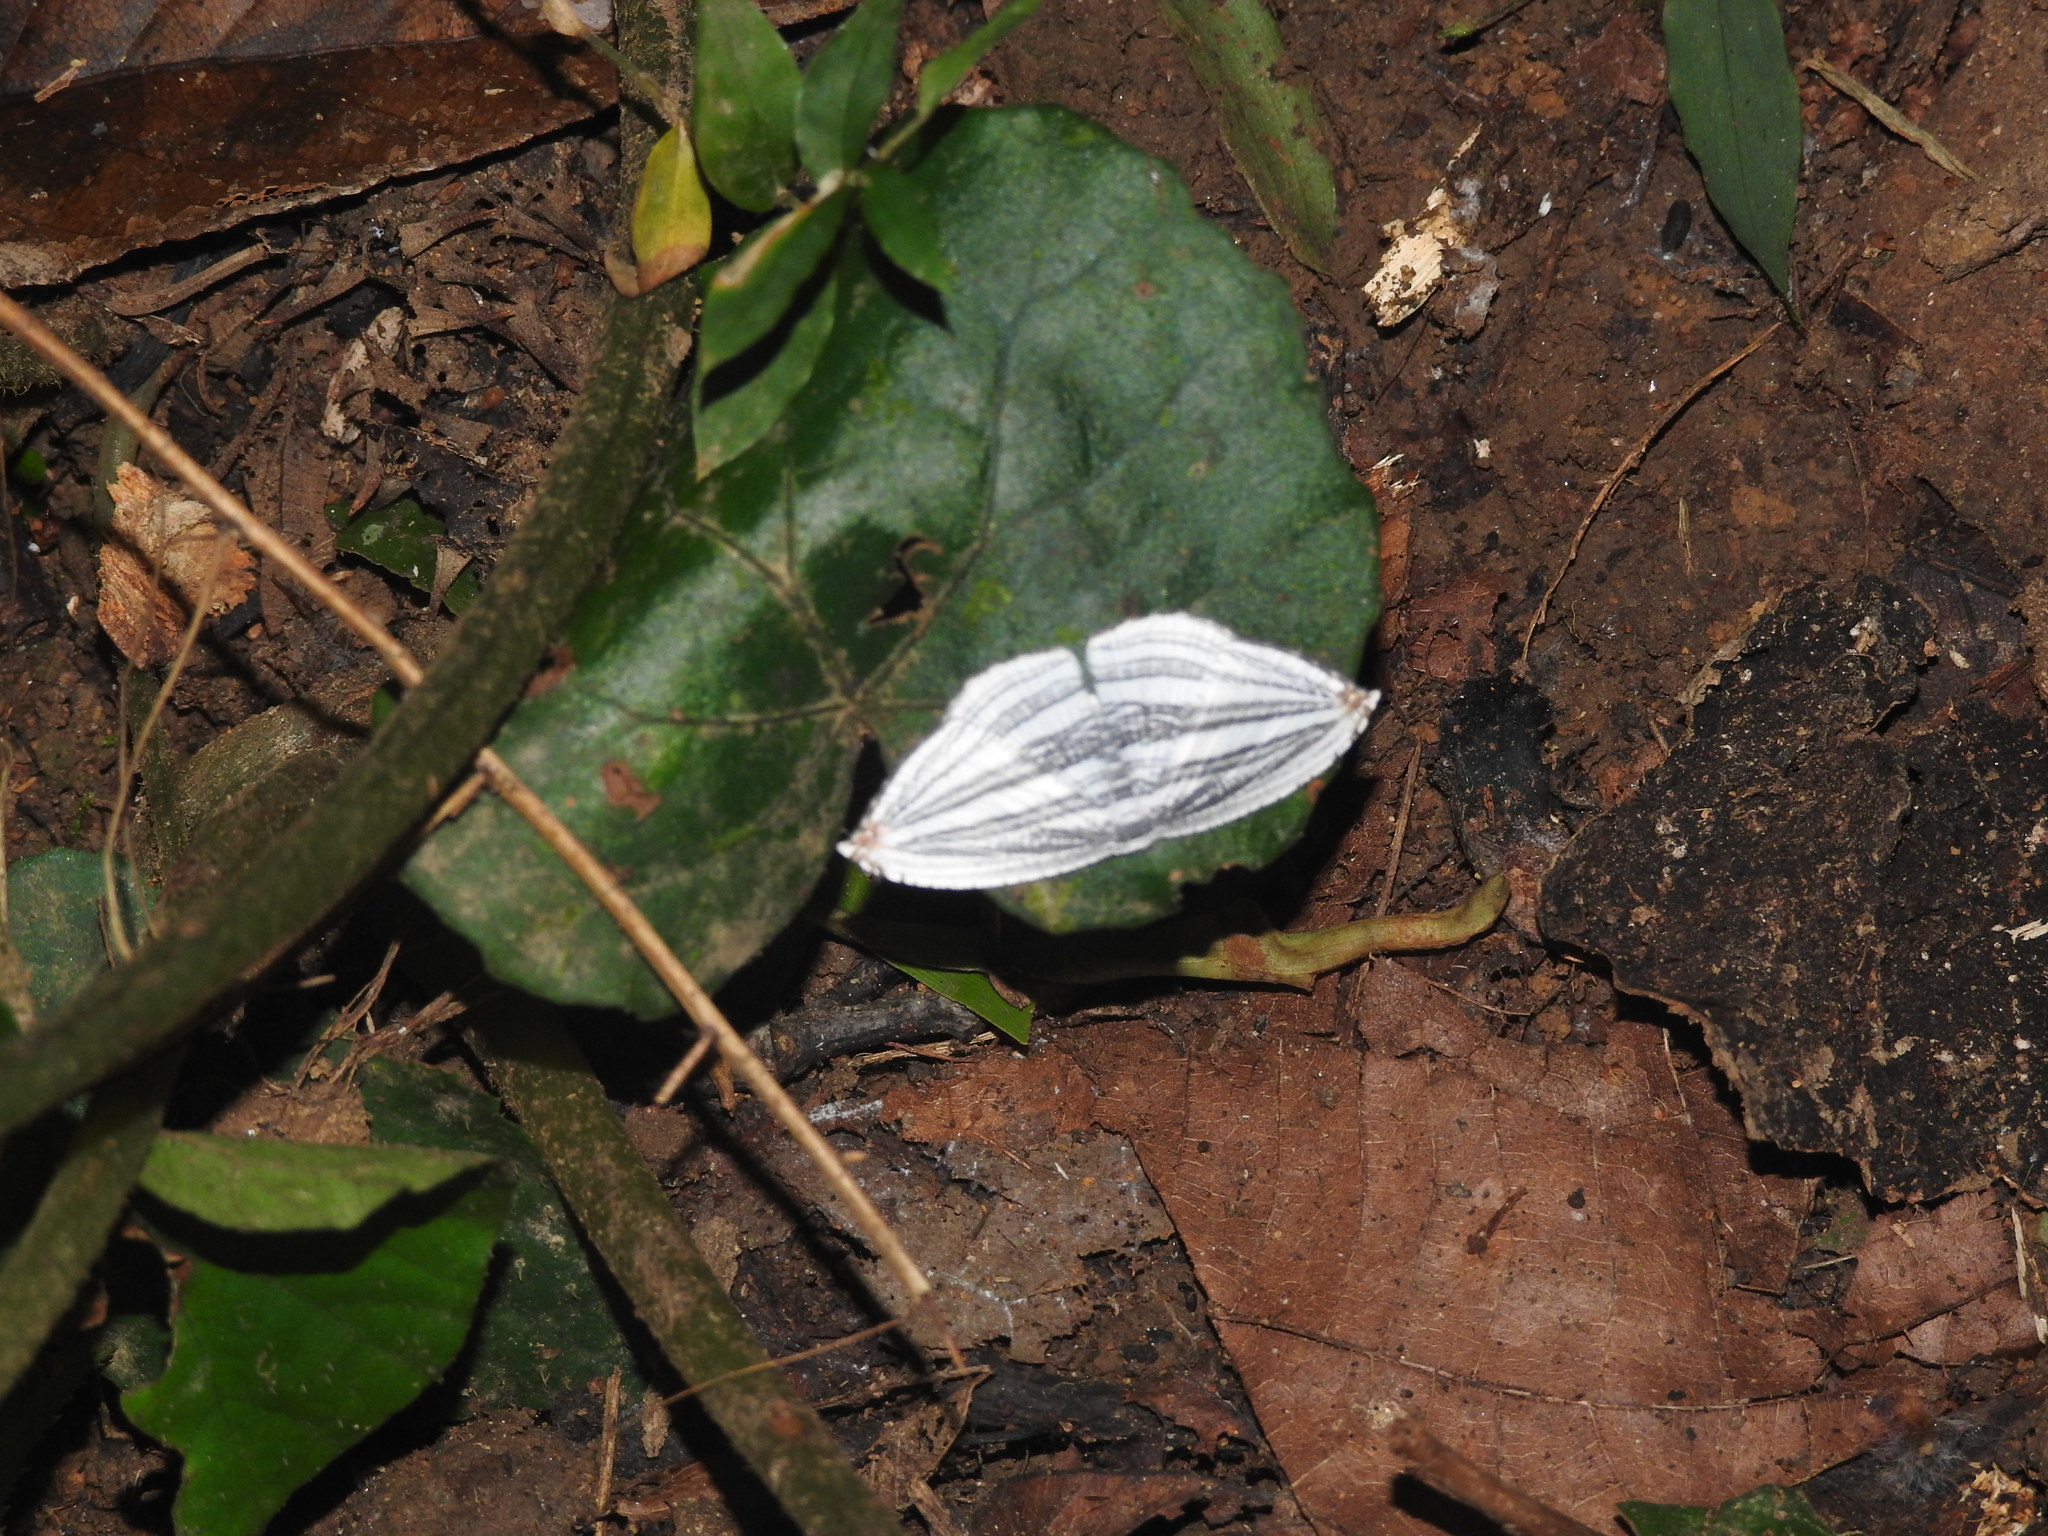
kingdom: Animalia
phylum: Arthropoda
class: Insecta
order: Lepidoptera
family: Uraniidae
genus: Acropteris
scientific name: Acropteris iphiata
